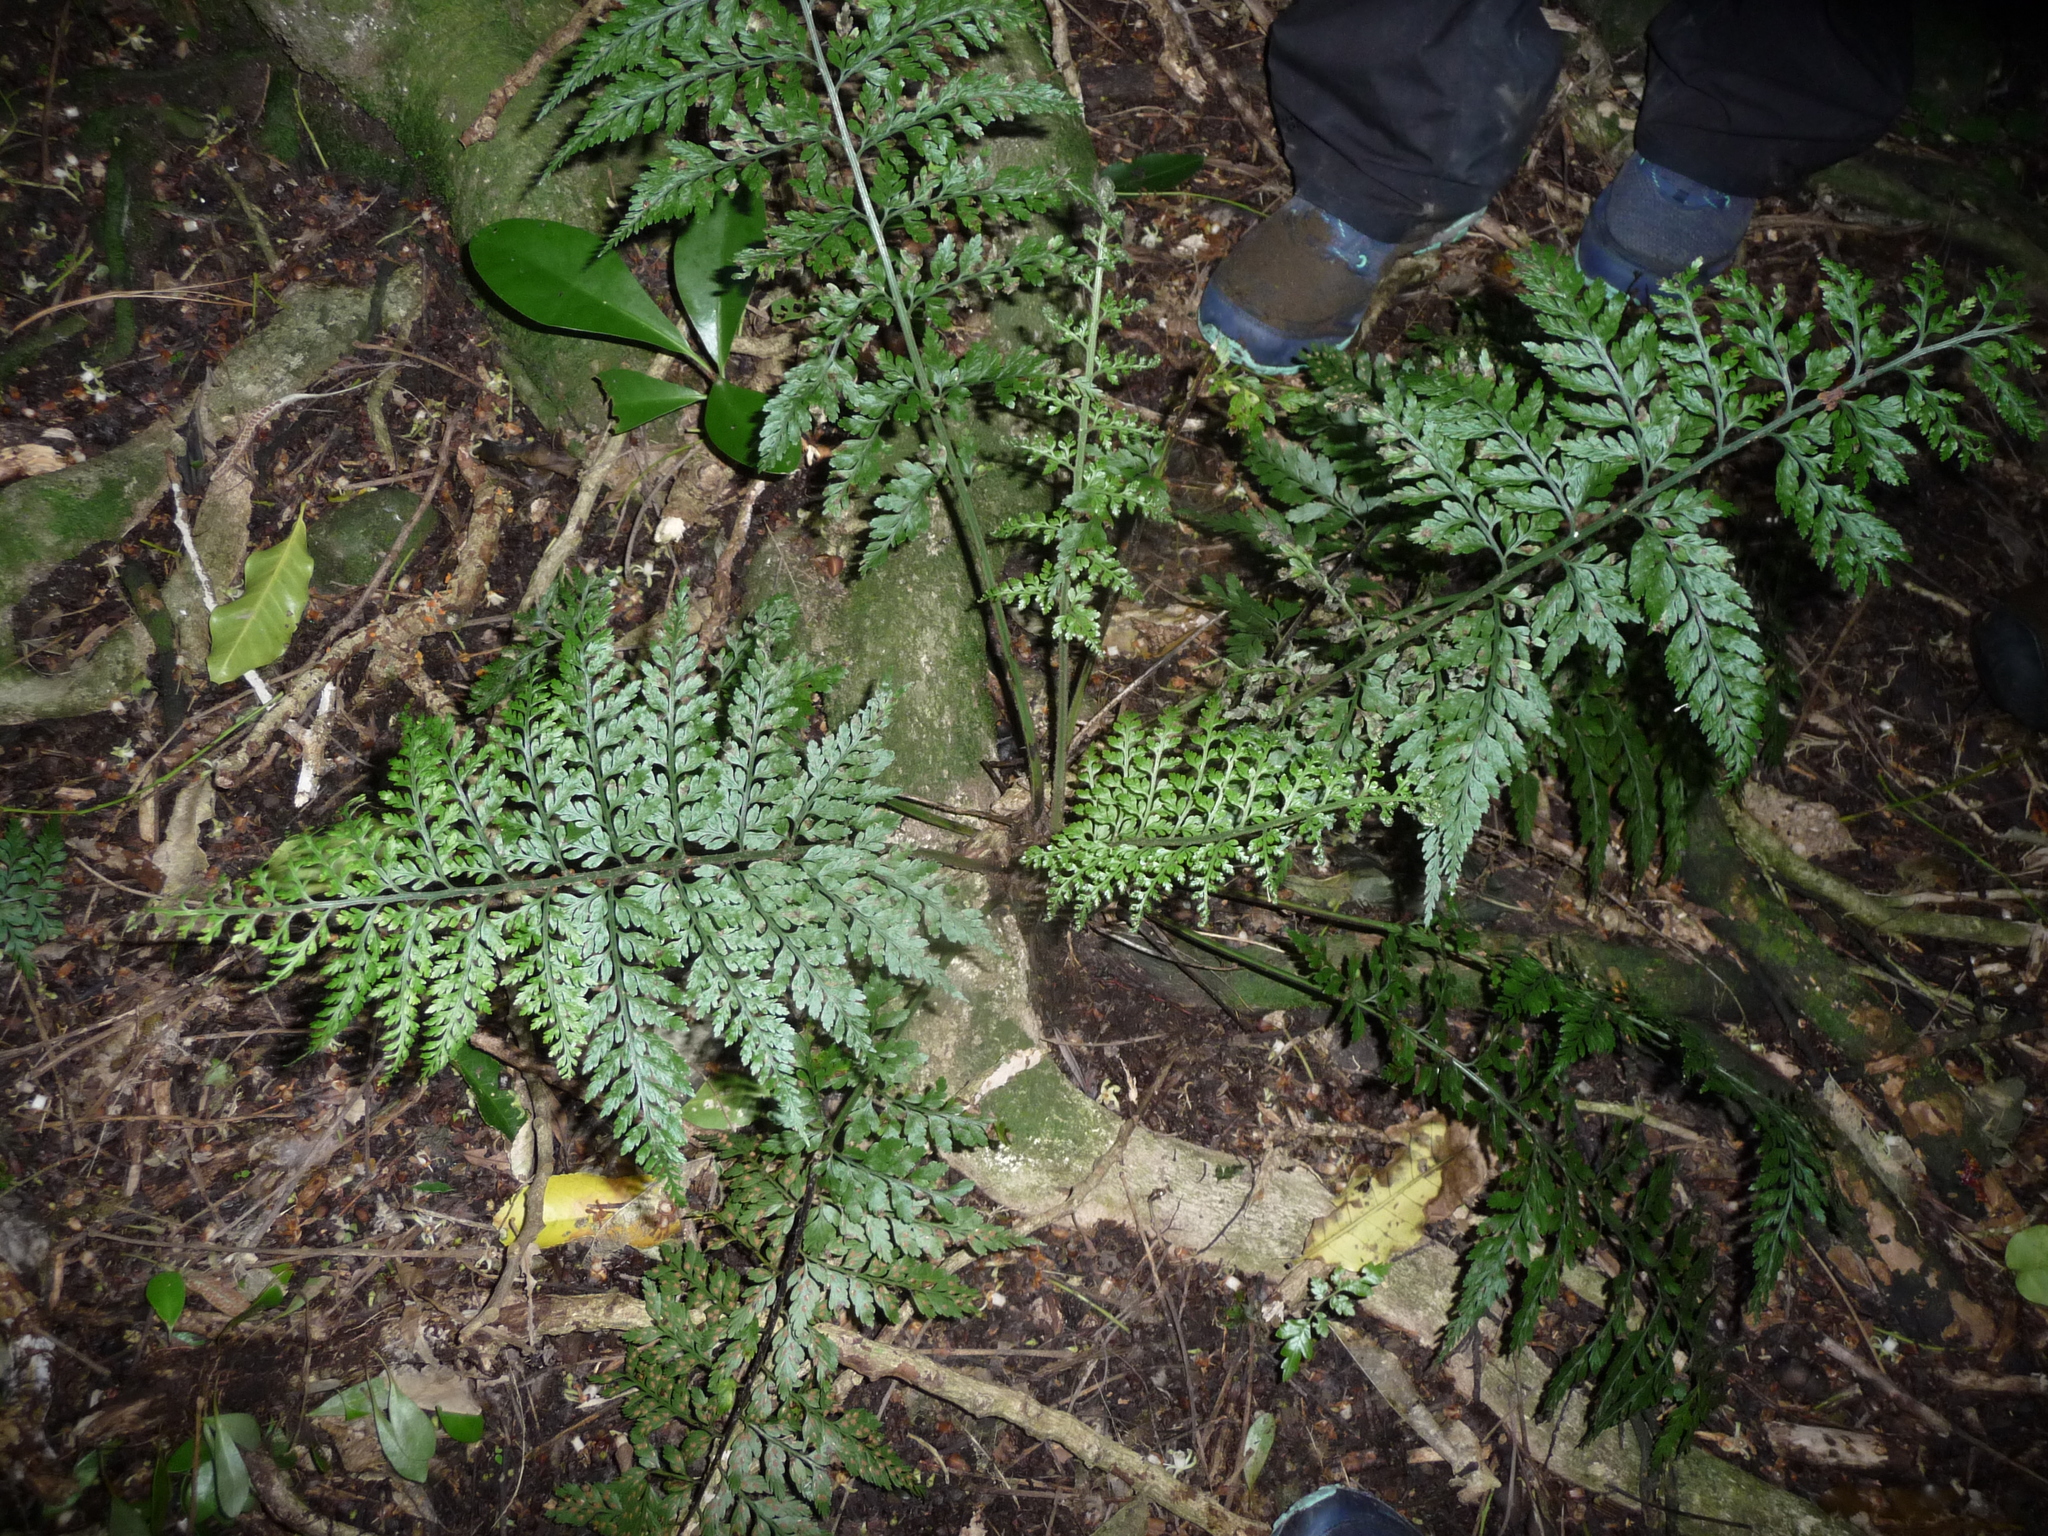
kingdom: Plantae
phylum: Tracheophyta
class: Polypodiopsida
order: Polypodiales
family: Aspleniaceae
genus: Asplenium
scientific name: Asplenium
